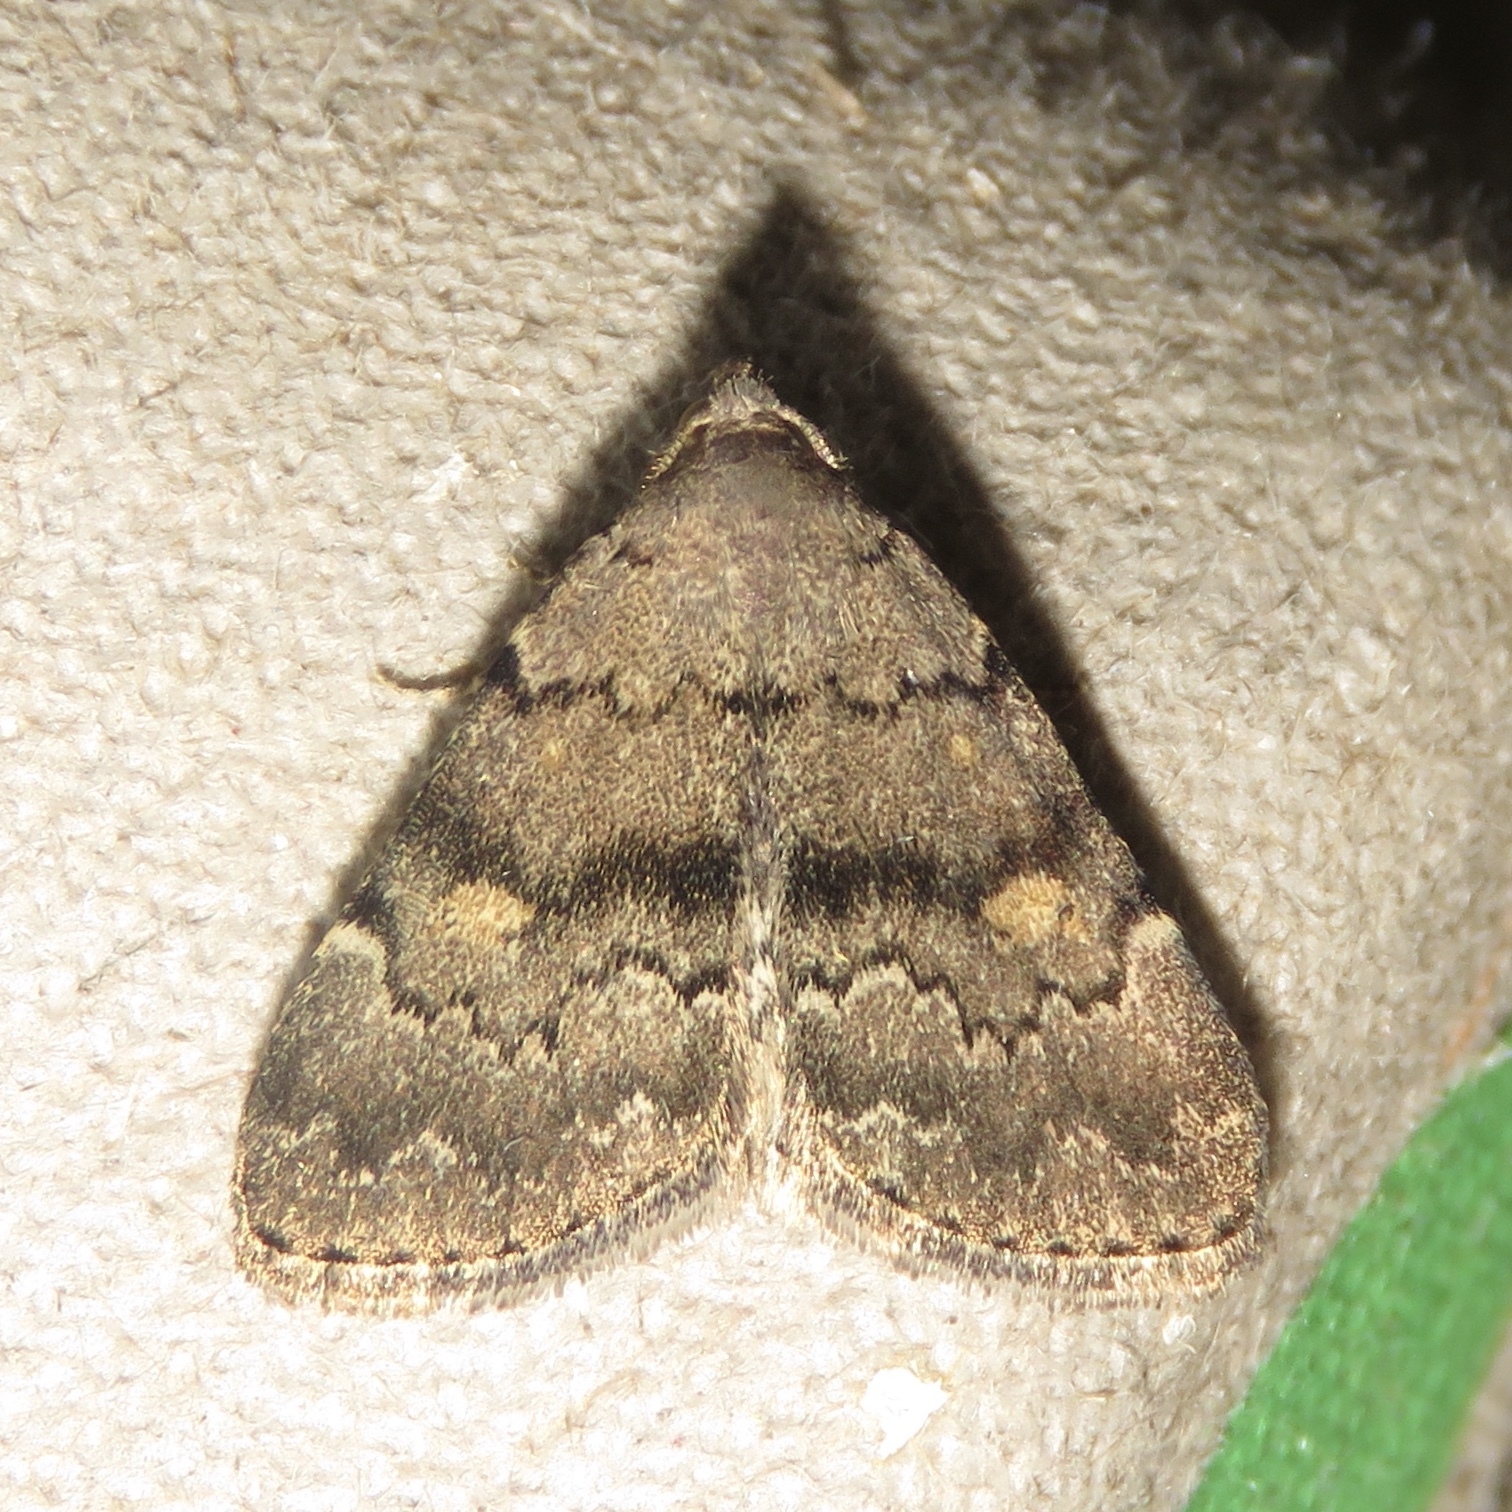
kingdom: Animalia
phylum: Arthropoda
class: Insecta
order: Lepidoptera
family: Erebidae
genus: Idia
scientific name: Idia aemula
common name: Common idia moth
